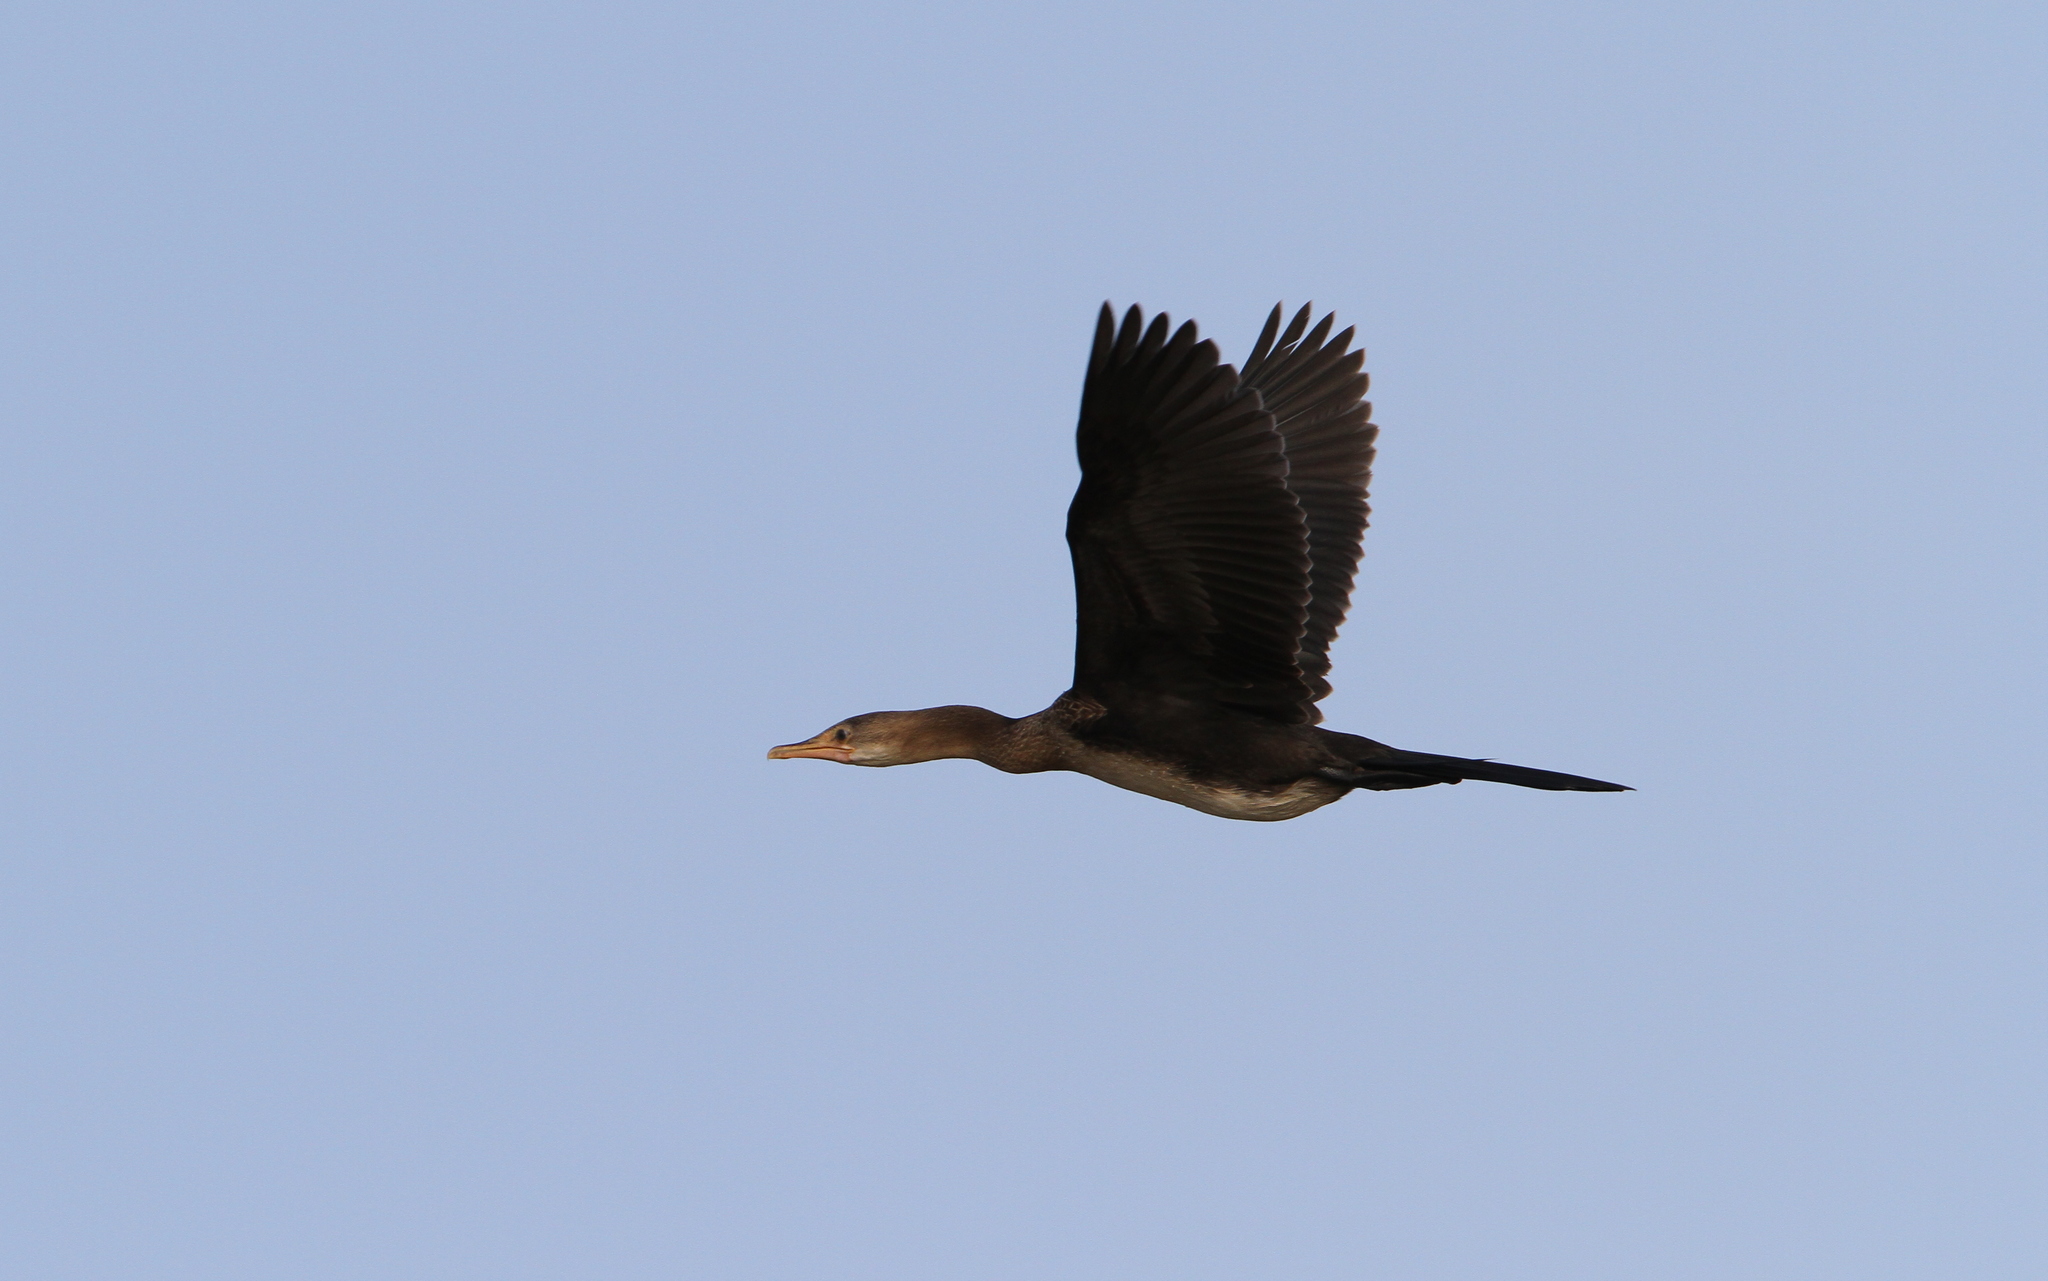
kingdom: Animalia
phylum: Chordata
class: Aves
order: Suliformes
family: Phalacrocoracidae
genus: Microcarbo
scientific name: Microcarbo africanus
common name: Long-tailed cormorant
